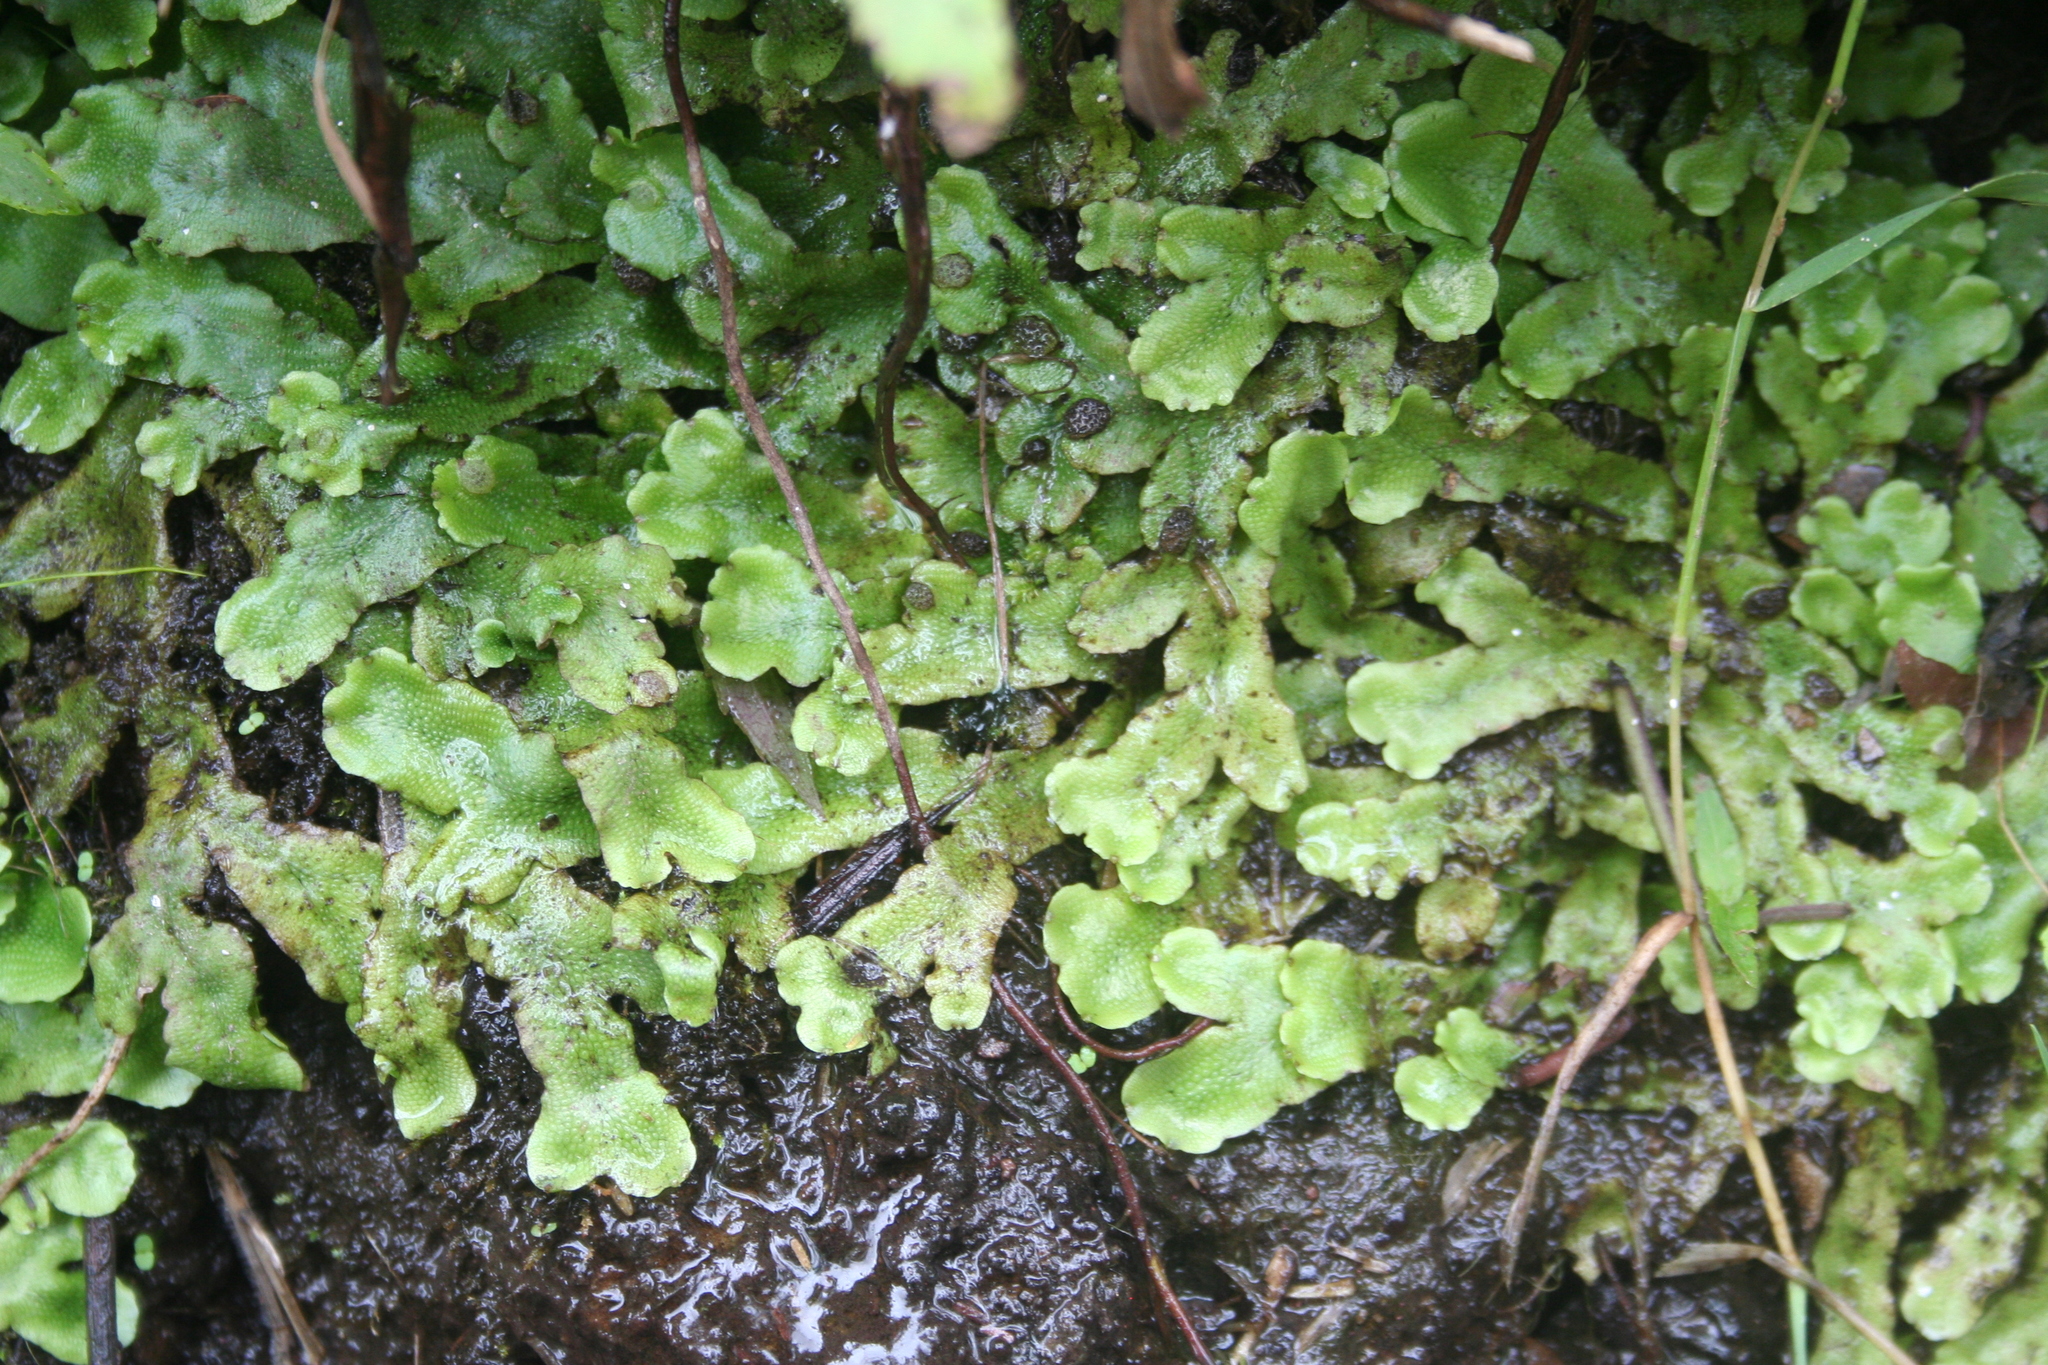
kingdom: Plantae
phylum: Marchantiophyta
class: Marchantiopsida
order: Marchantiales
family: Conocephalaceae
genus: Conocephalum
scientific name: Conocephalum conicum
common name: Great scented liverwort
